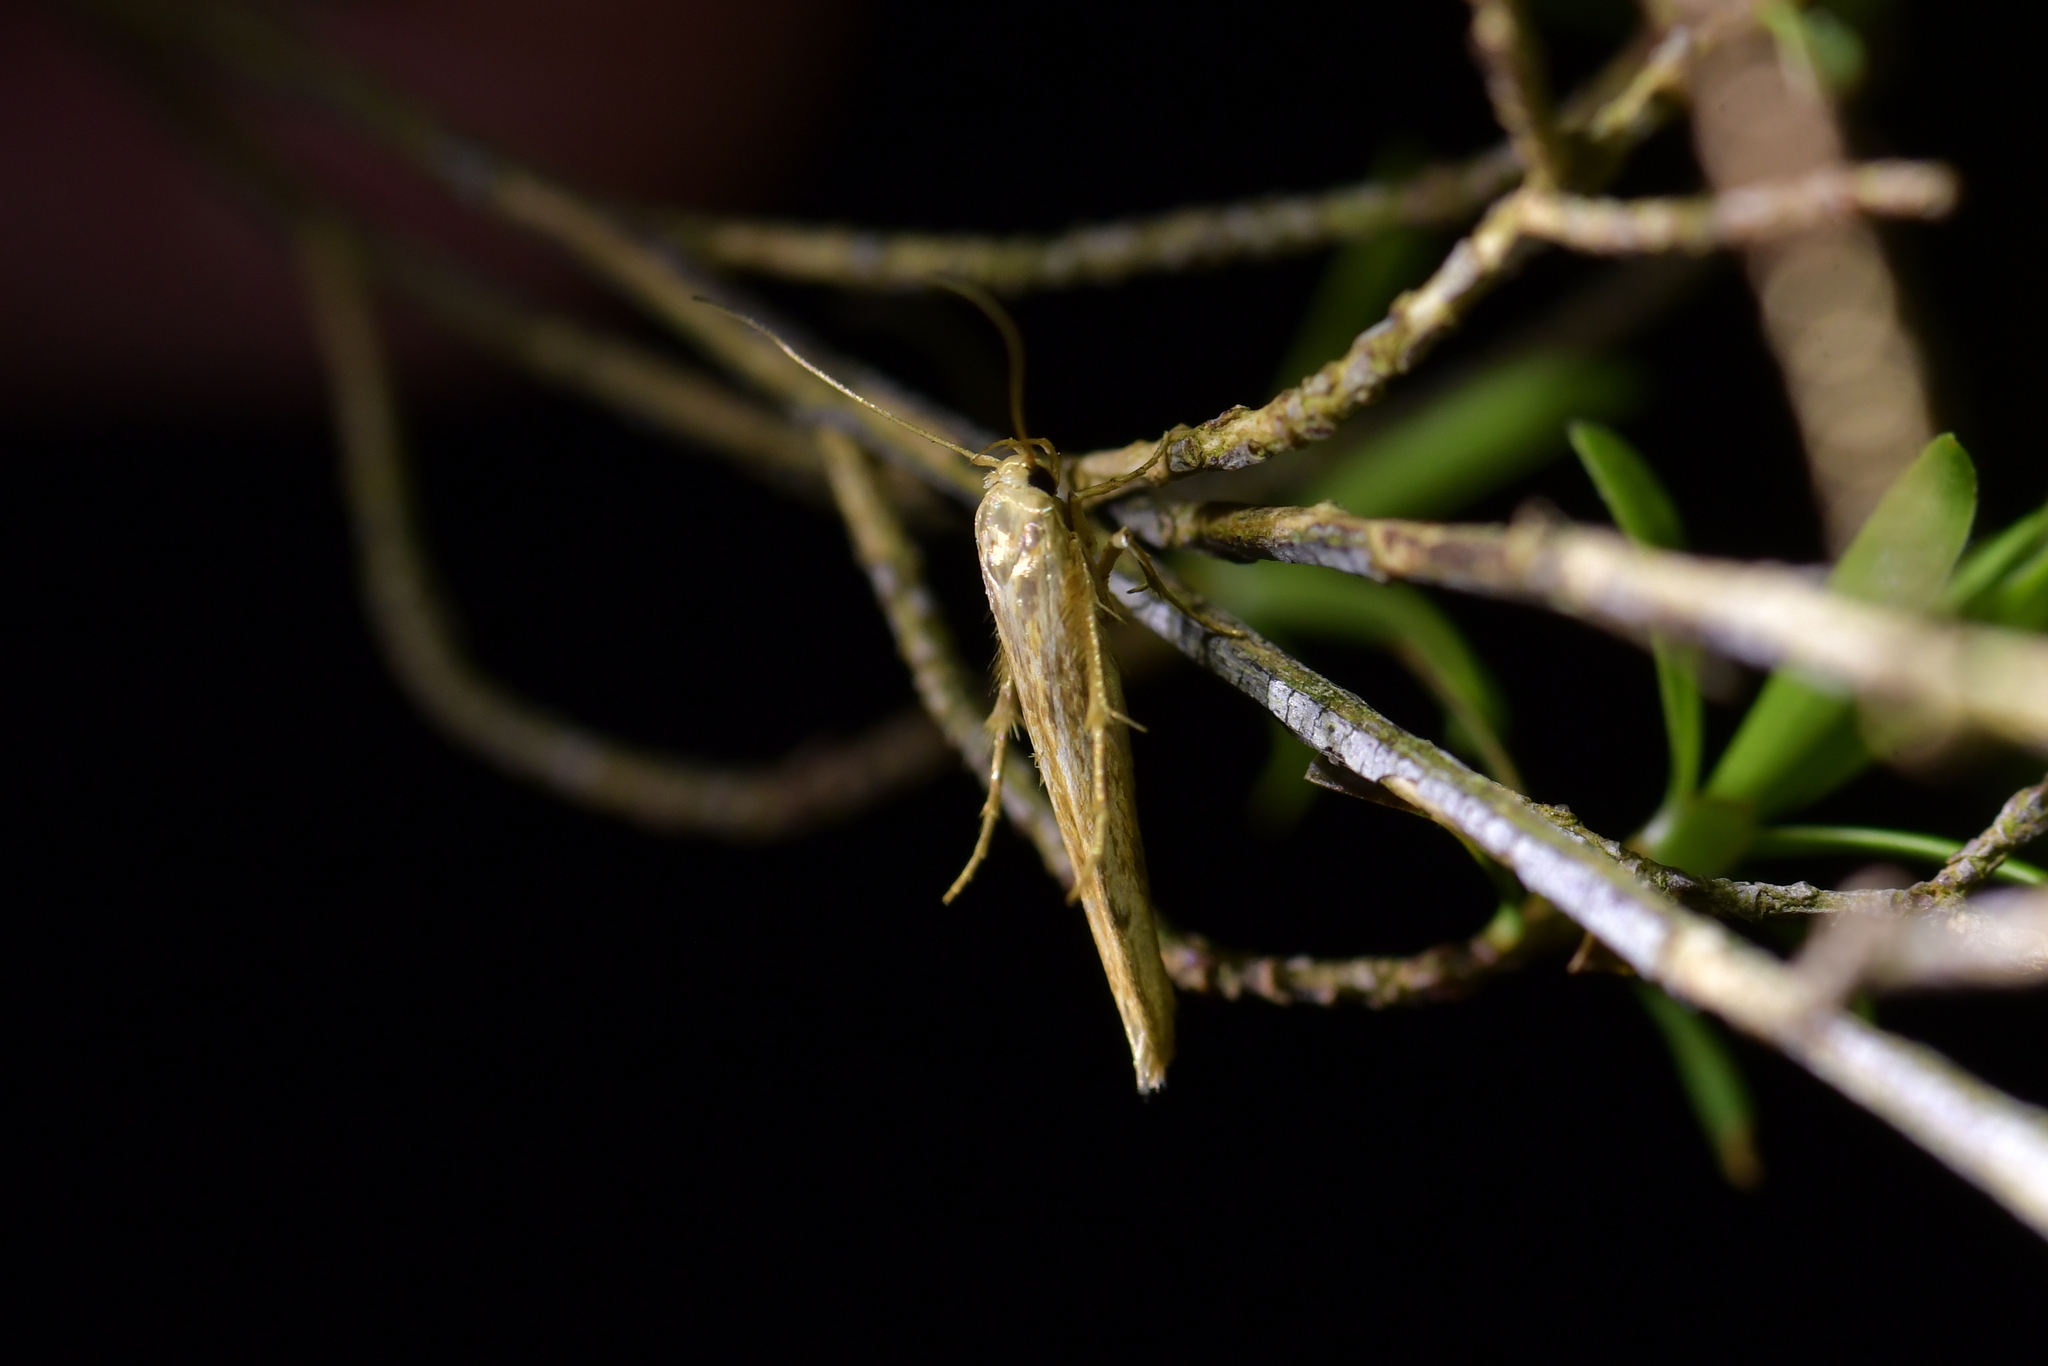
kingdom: Animalia
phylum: Arthropoda
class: Insecta
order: Lepidoptera
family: Stathmopodidae
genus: Stathmopoda
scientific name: Stathmopoda aposema
